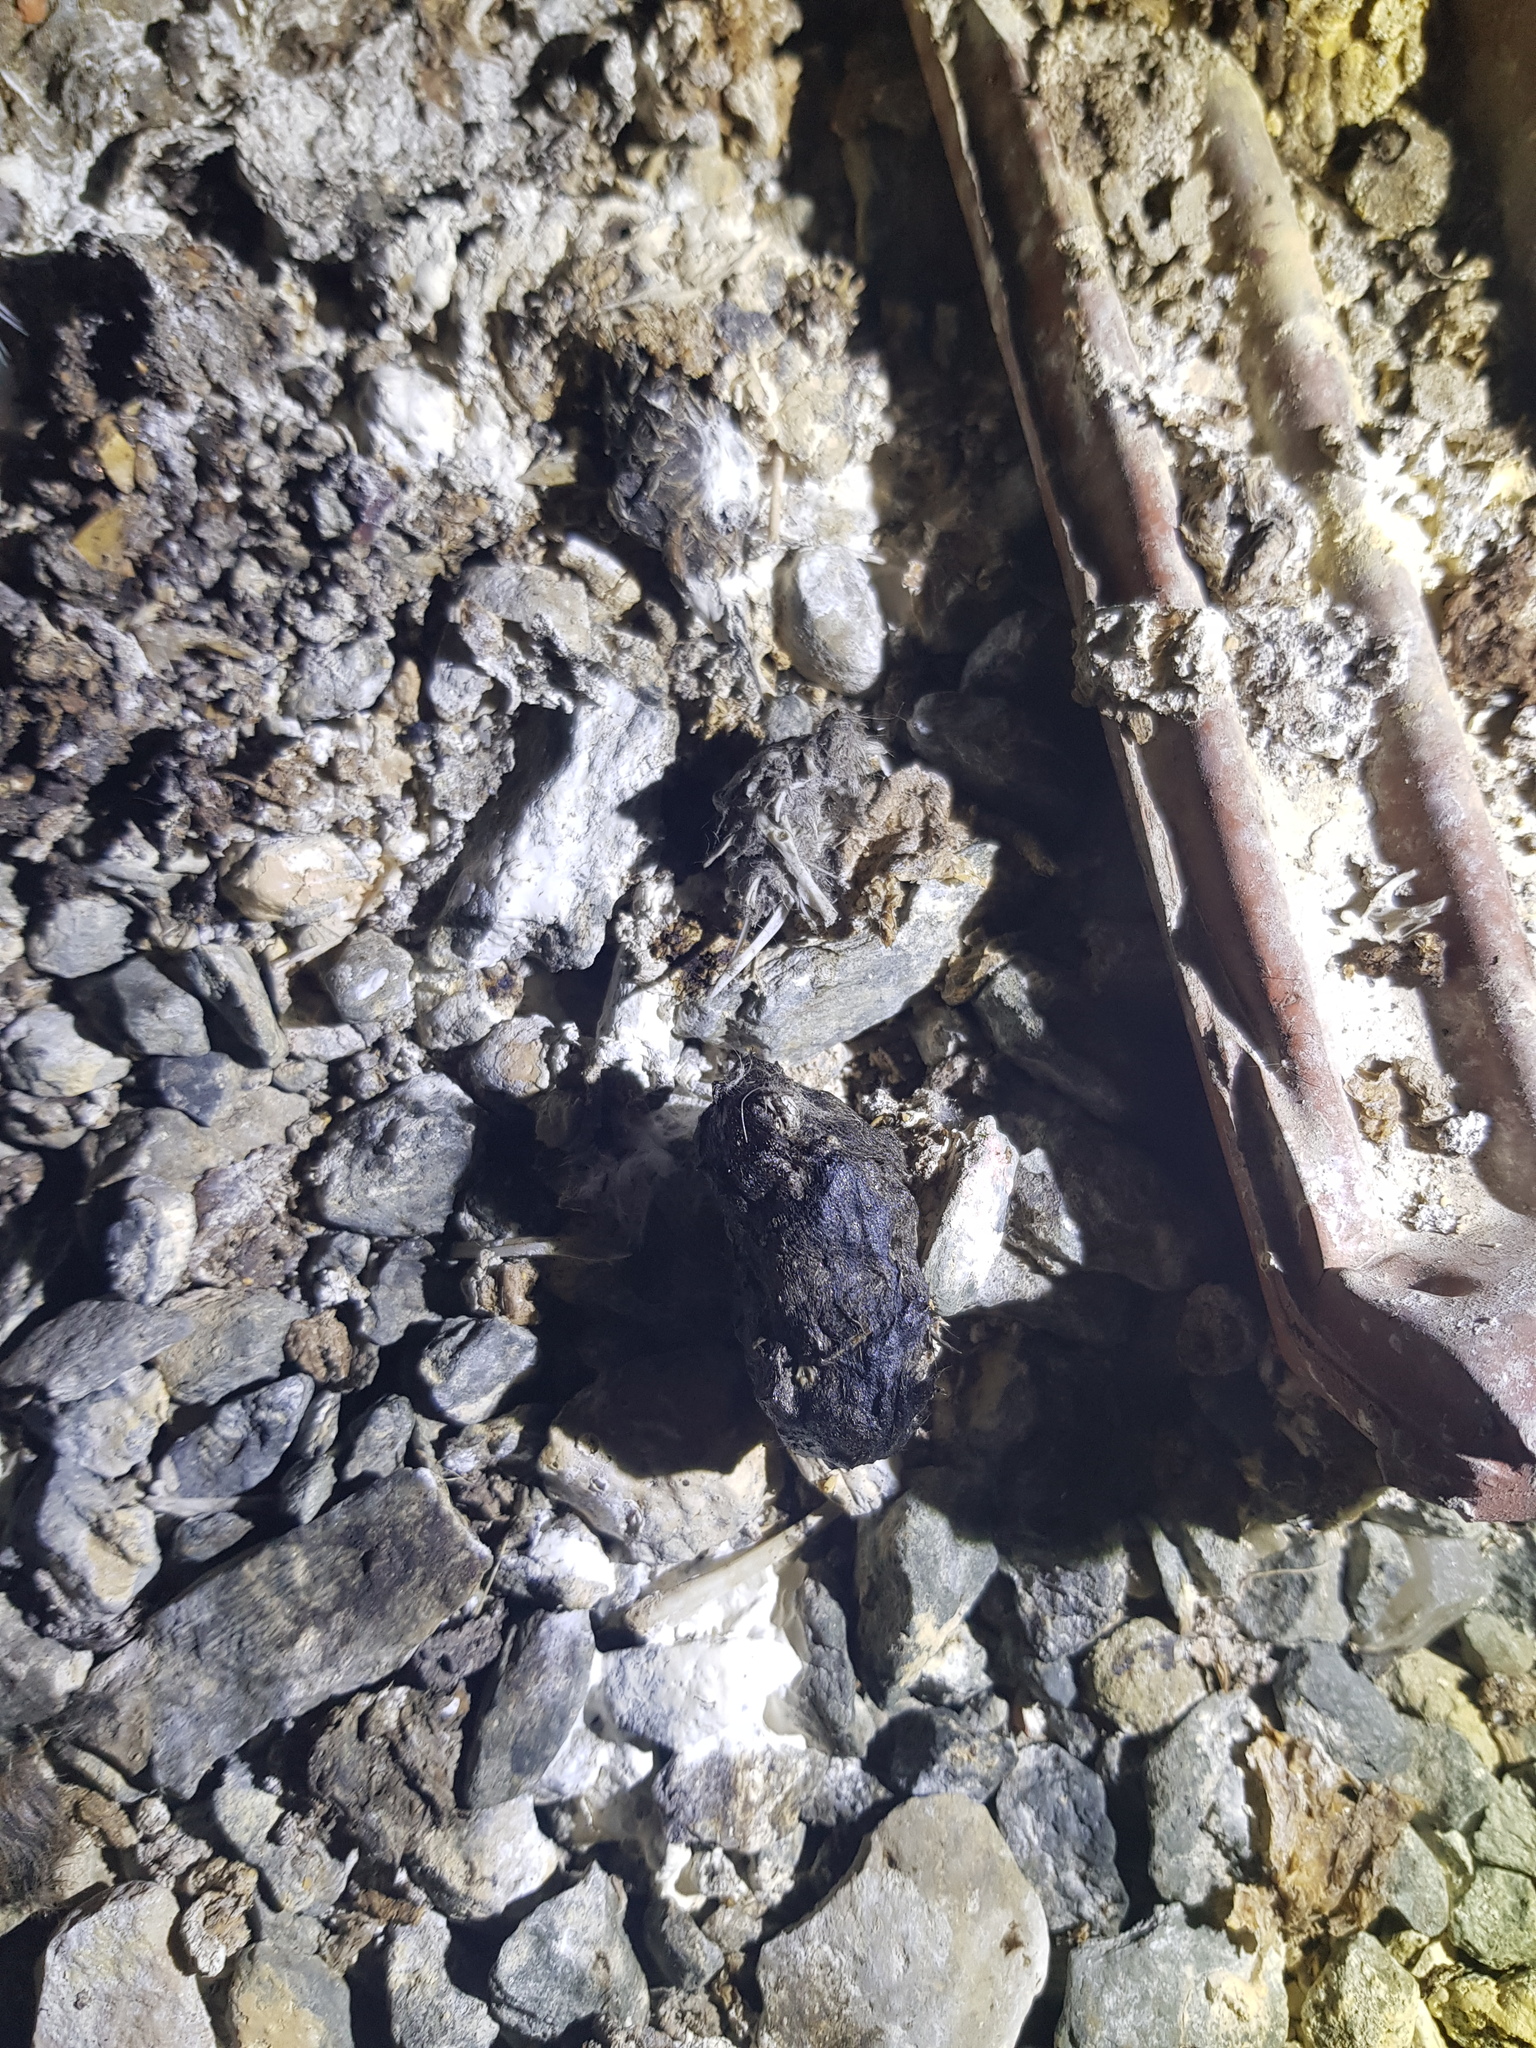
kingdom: Animalia
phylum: Chordata
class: Aves
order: Strigiformes
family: Tytonidae
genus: Tyto
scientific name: Tyto alba
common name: Barn owl
